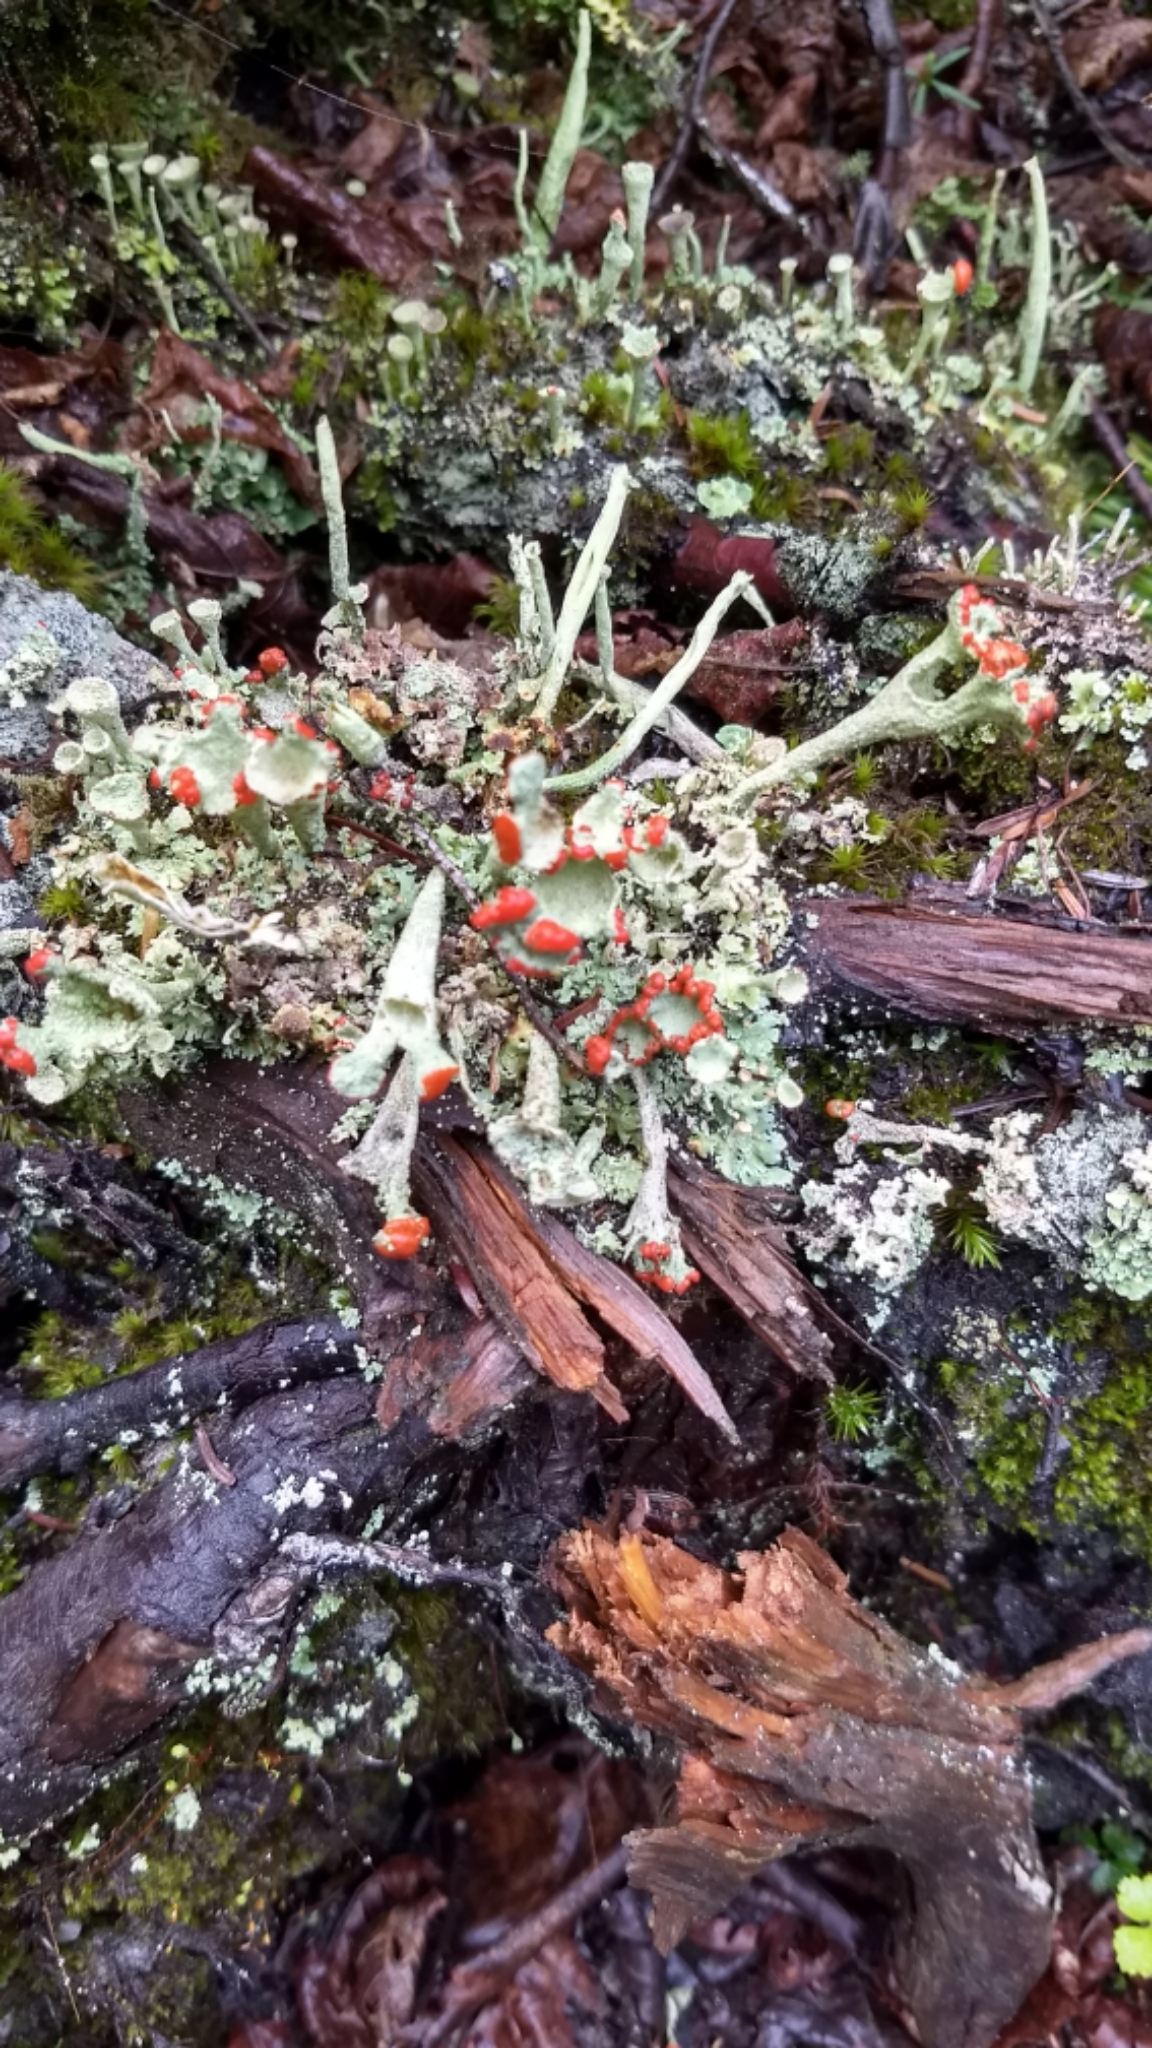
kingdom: Fungi
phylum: Ascomycota
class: Lecanoromycetes
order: Lecanorales
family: Cladoniaceae
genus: Cladonia
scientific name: Cladonia pleurota
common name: Red-fruited pixie cup
